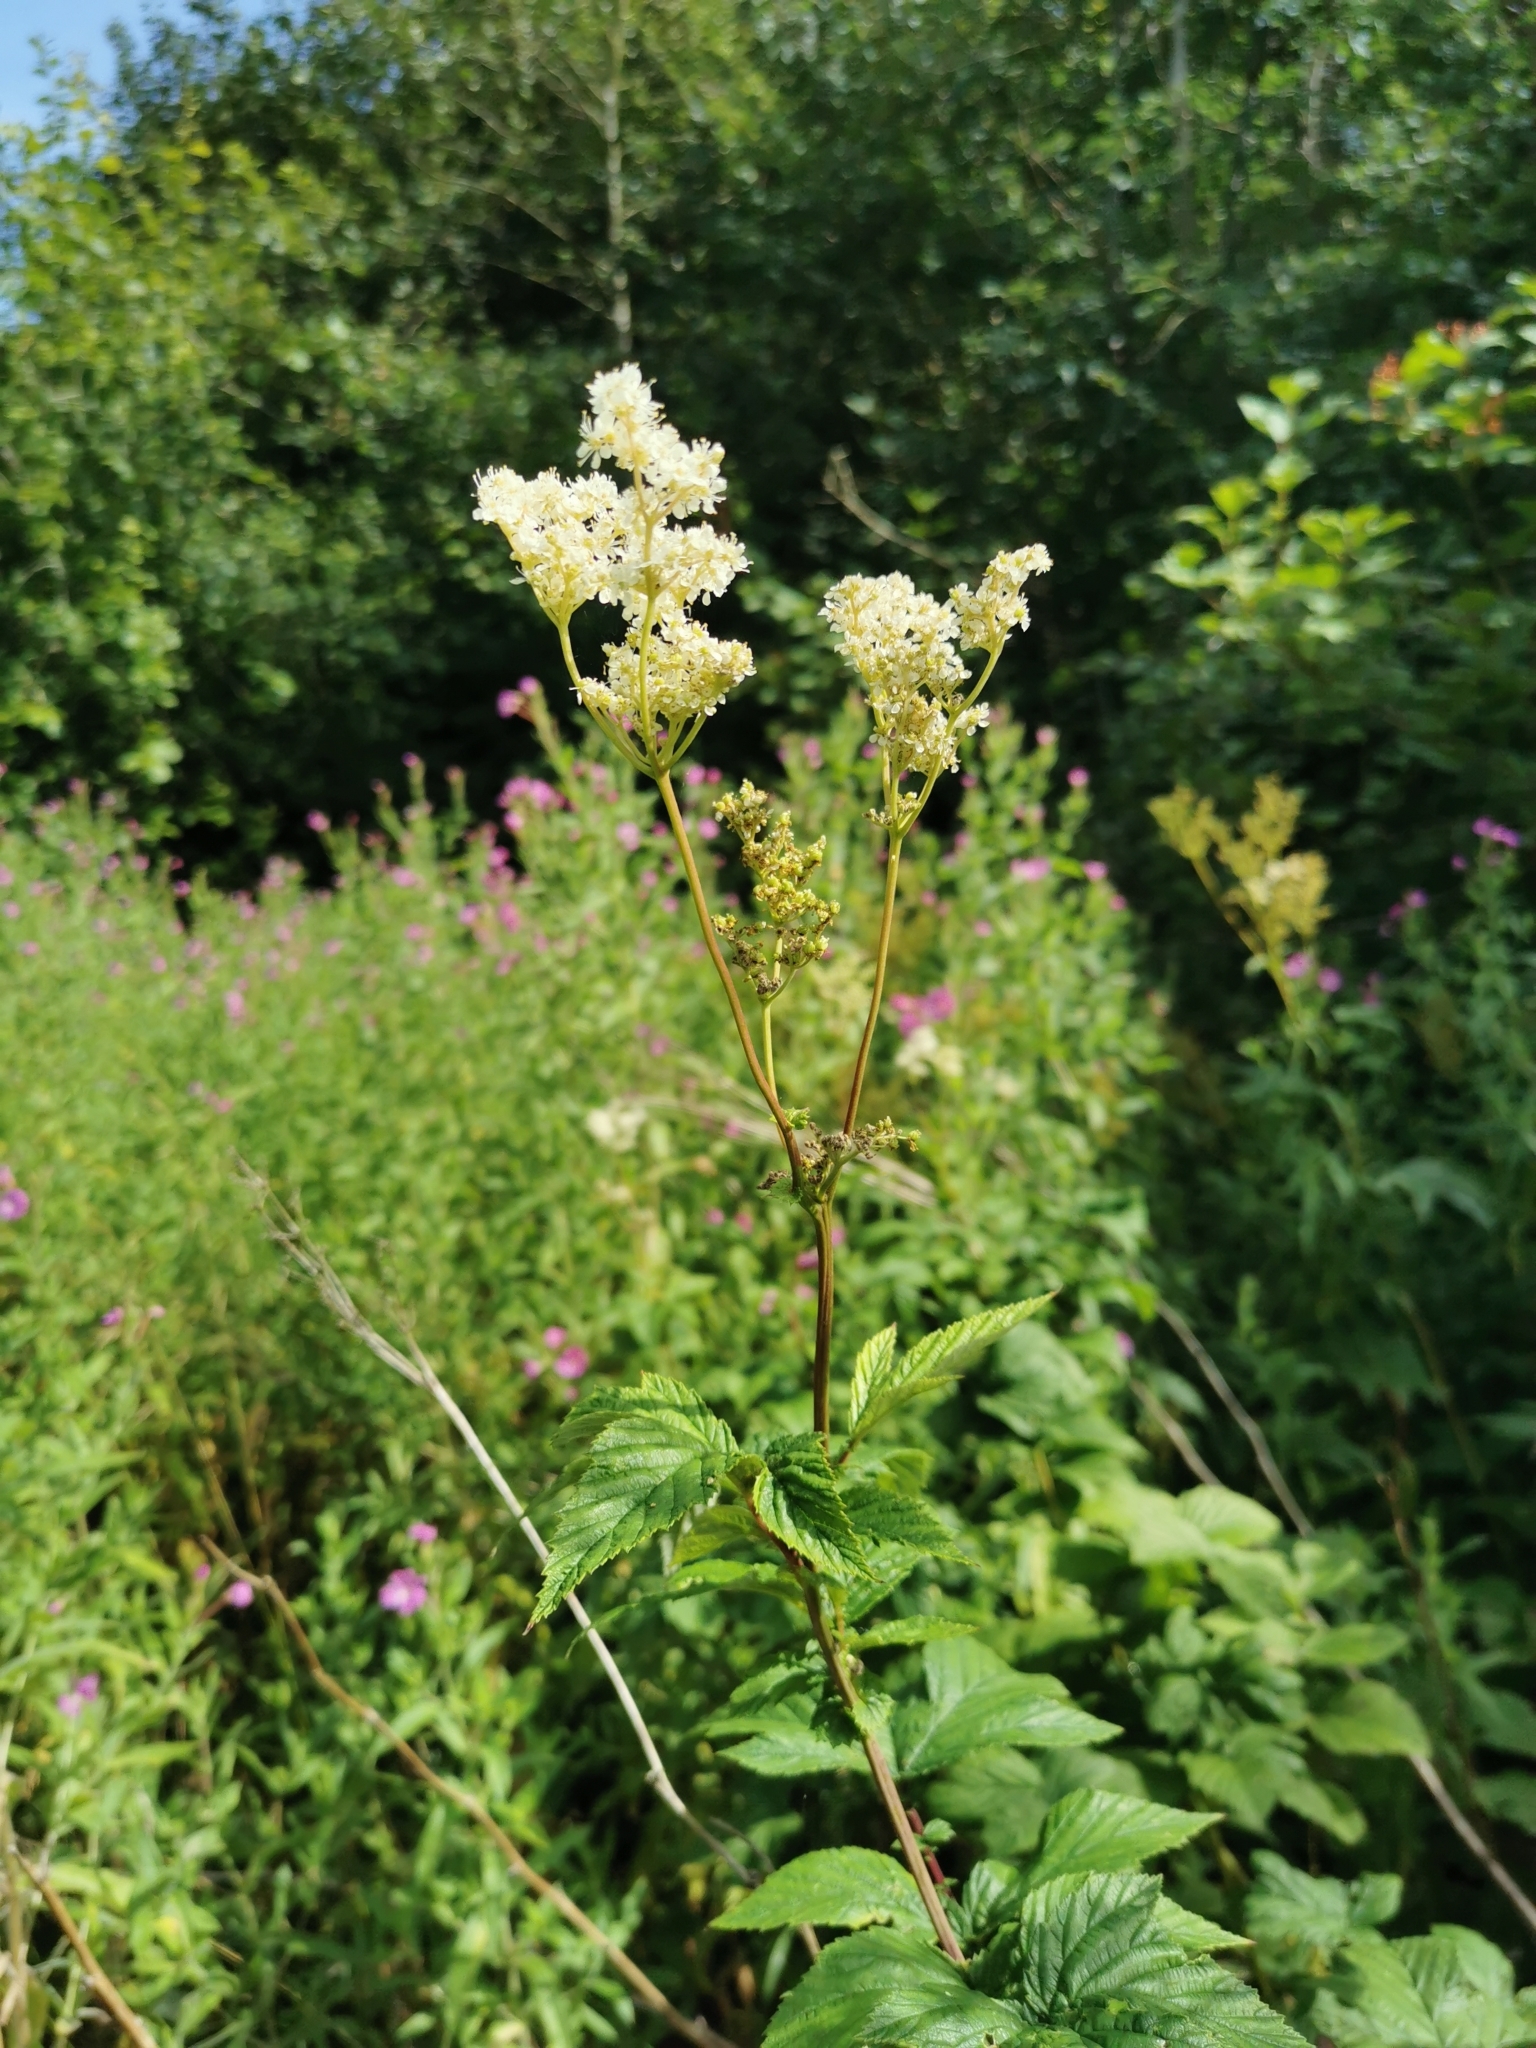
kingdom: Plantae
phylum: Tracheophyta
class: Magnoliopsida
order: Rosales
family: Rosaceae
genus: Filipendula
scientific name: Filipendula ulmaria
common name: Meadowsweet
